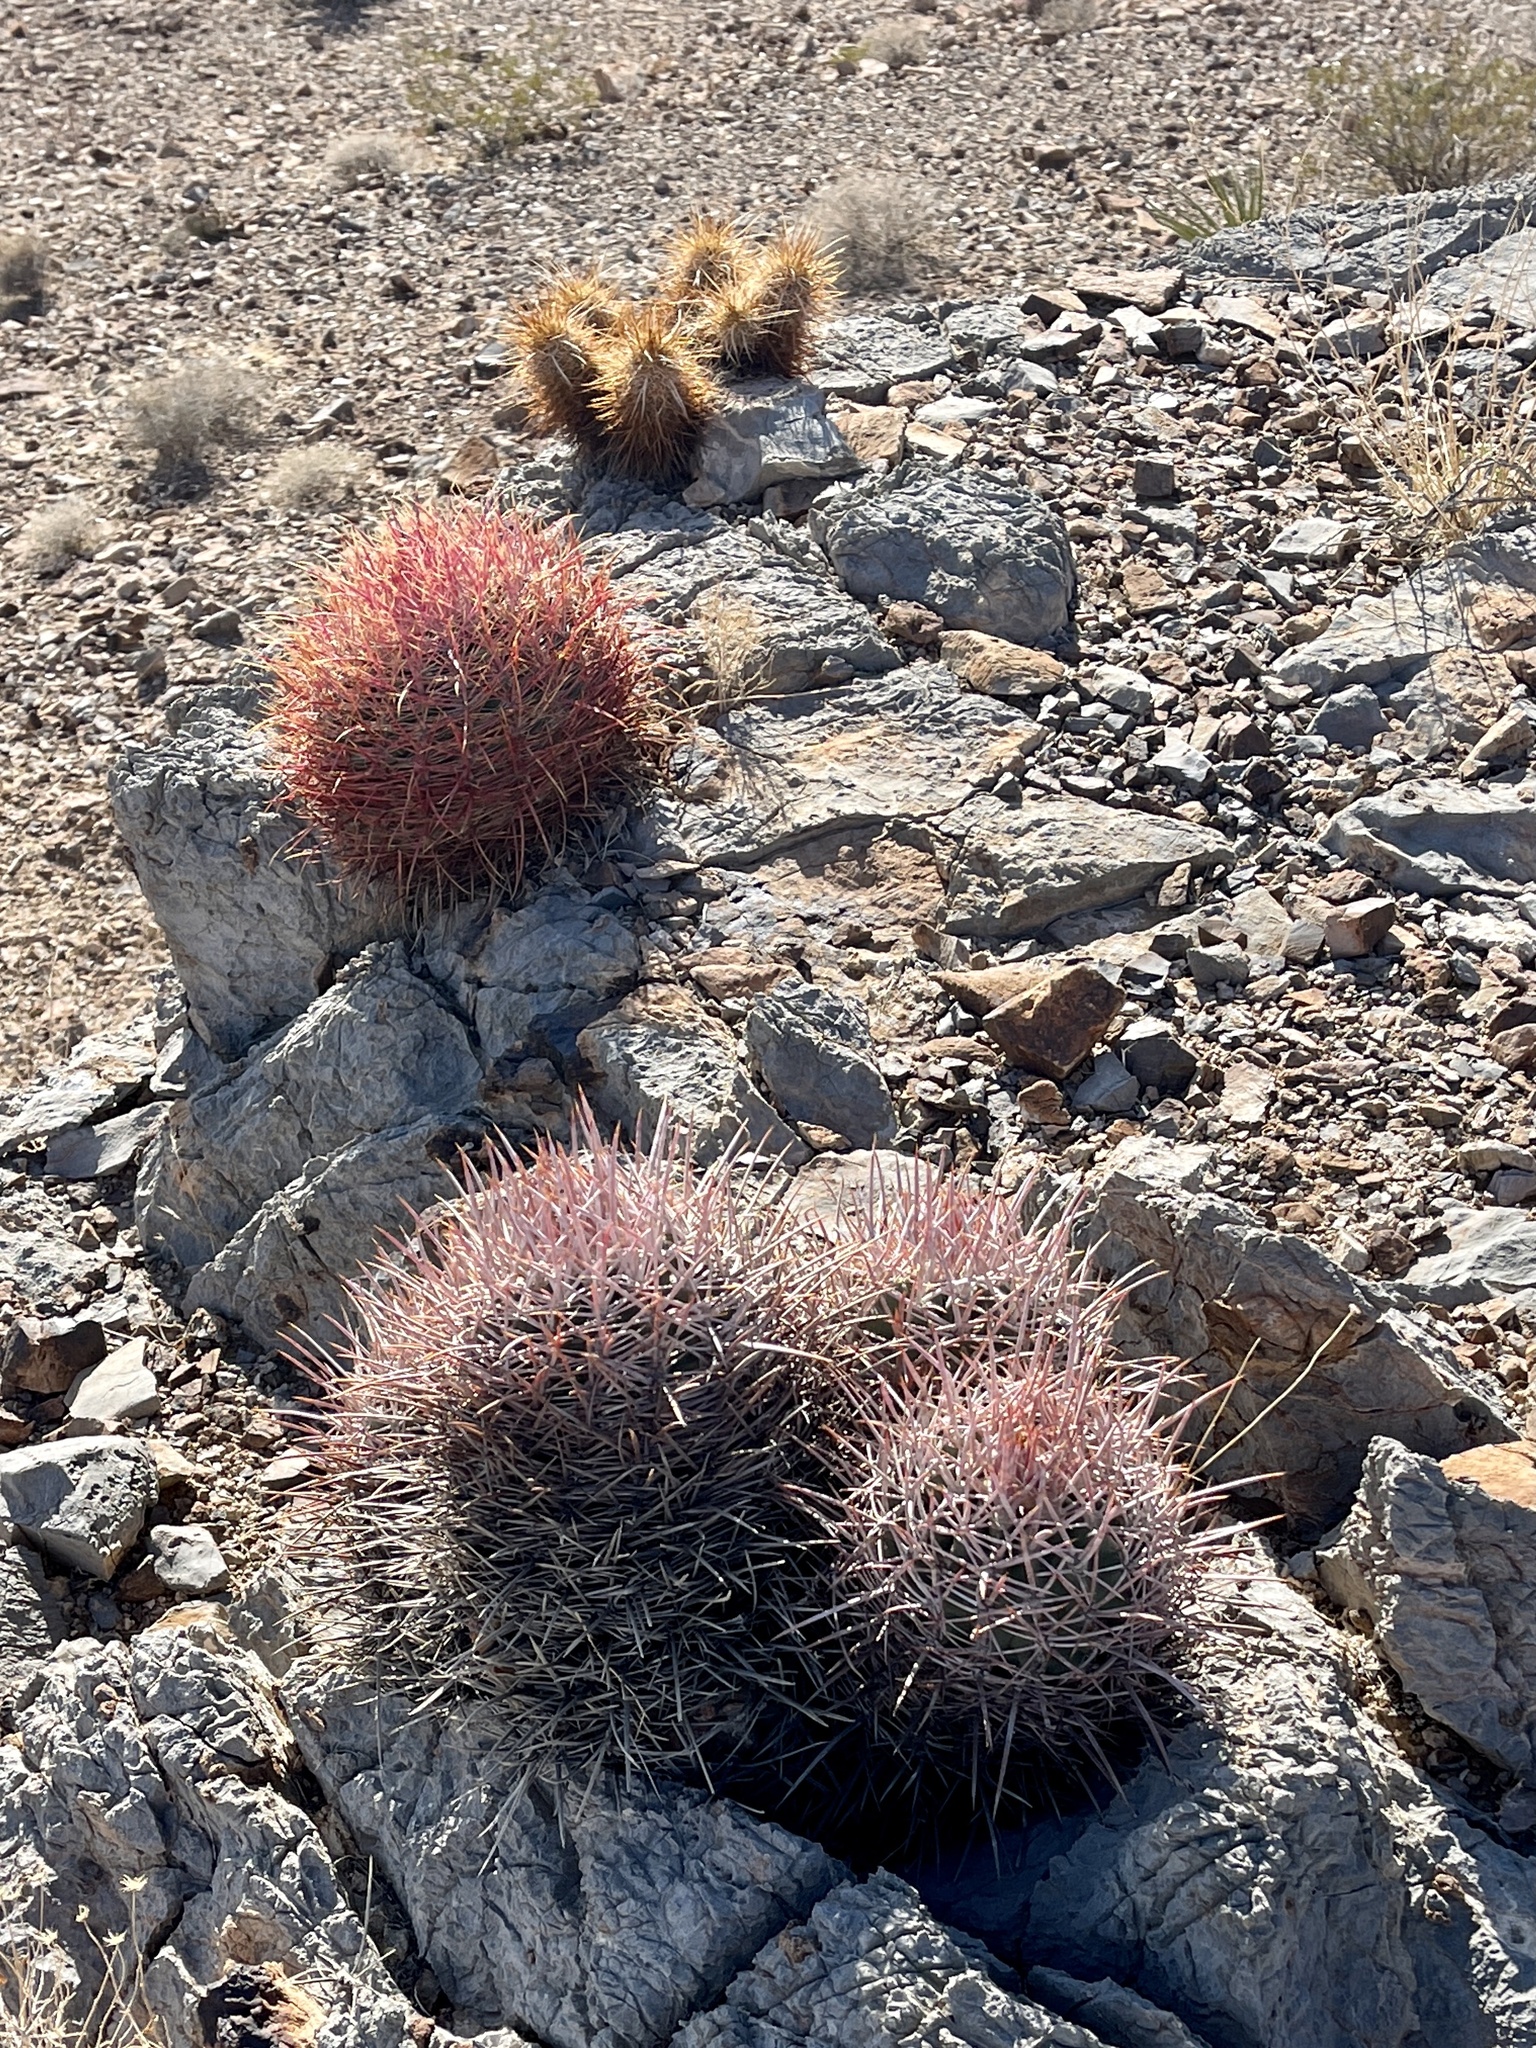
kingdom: Plantae
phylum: Tracheophyta
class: Magnoliopsida
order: Caryophyllales
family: Cactaceae
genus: Echinocereus
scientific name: Echinocereus engelmannii
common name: Engelmann's hedgehog cactus
